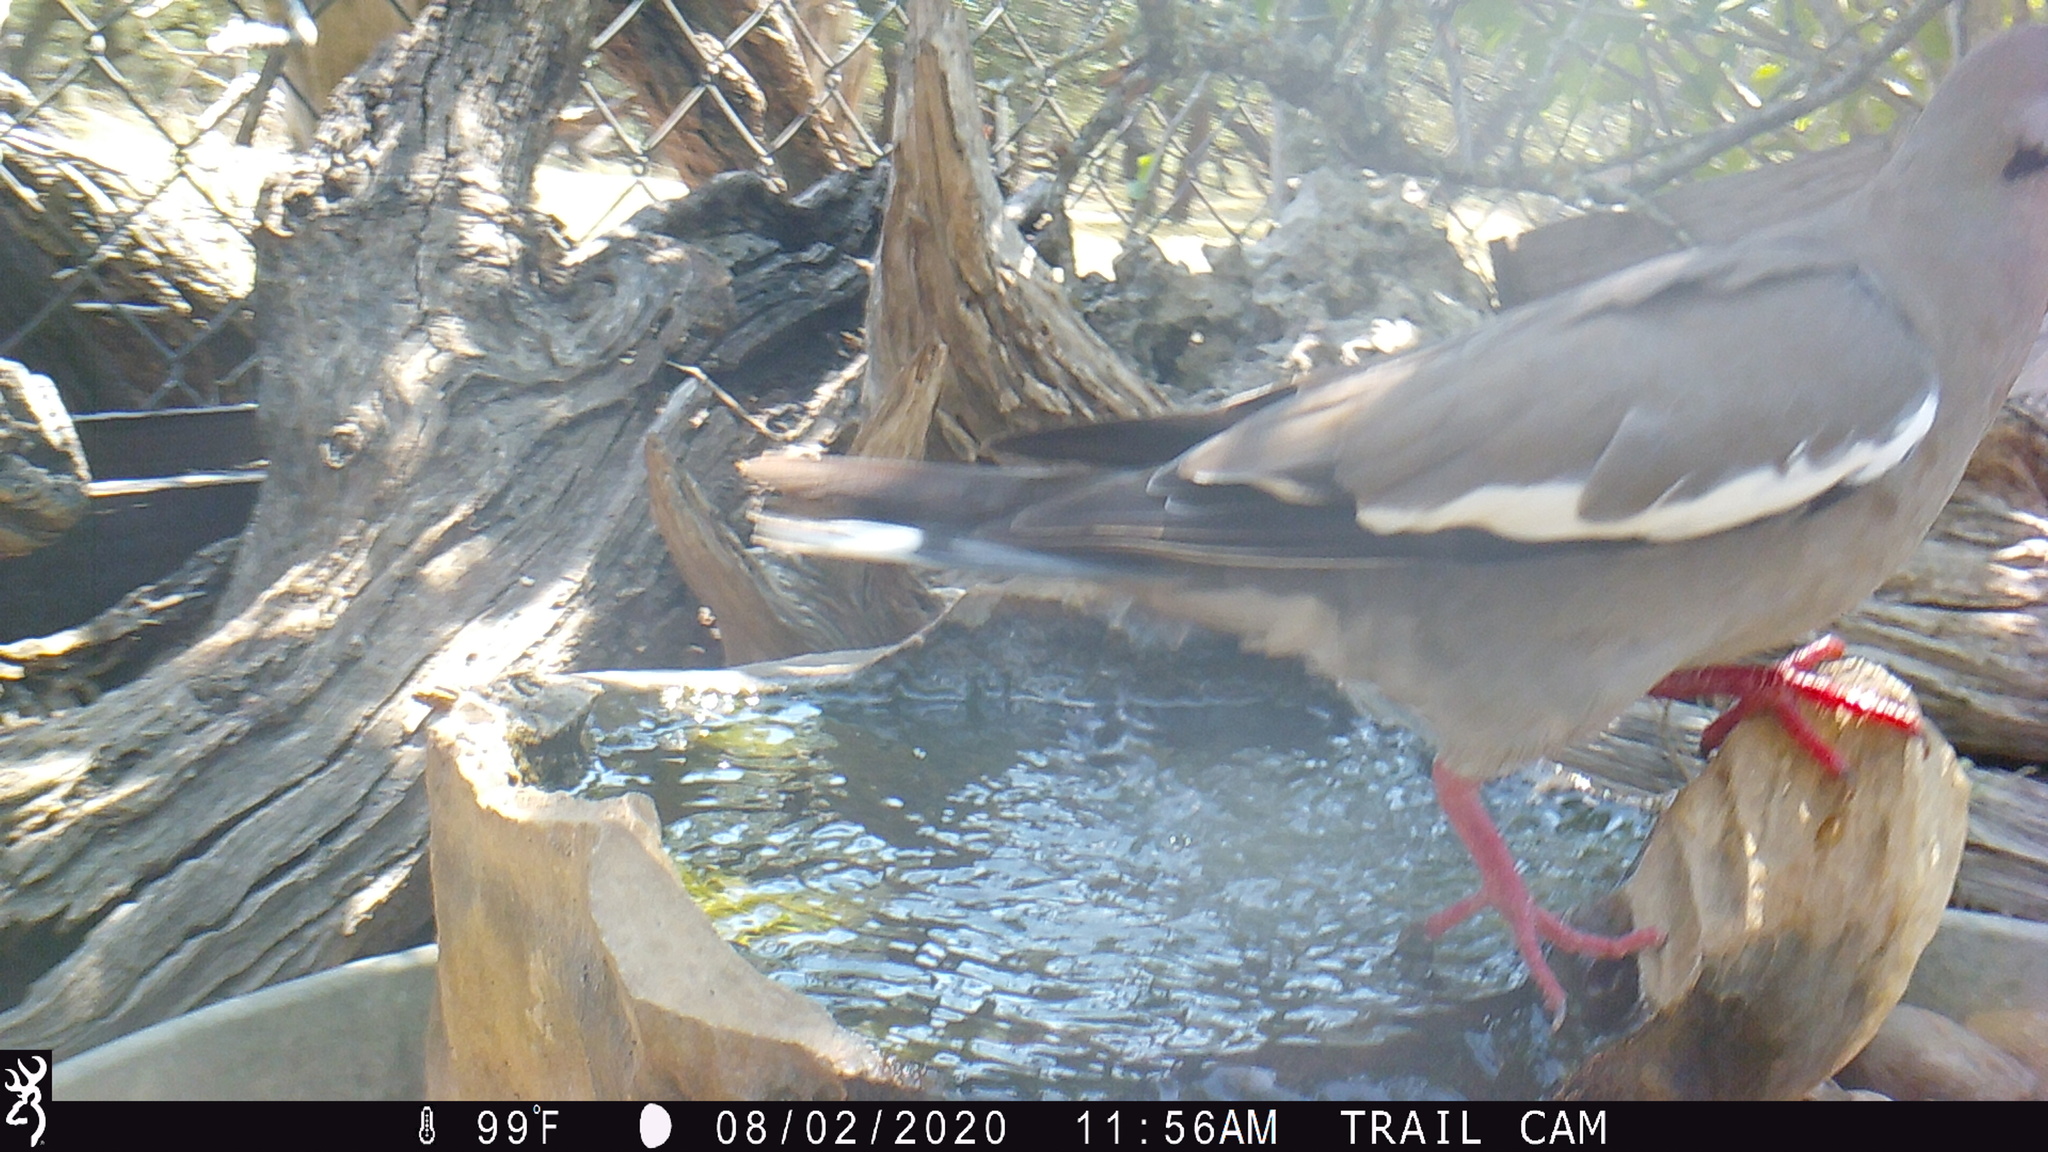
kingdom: Animalia
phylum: Chordata
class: Aves
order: Columbiformes
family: Columbidae
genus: Zenaida
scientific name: Zenaida asiatica
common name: White-winged dove
